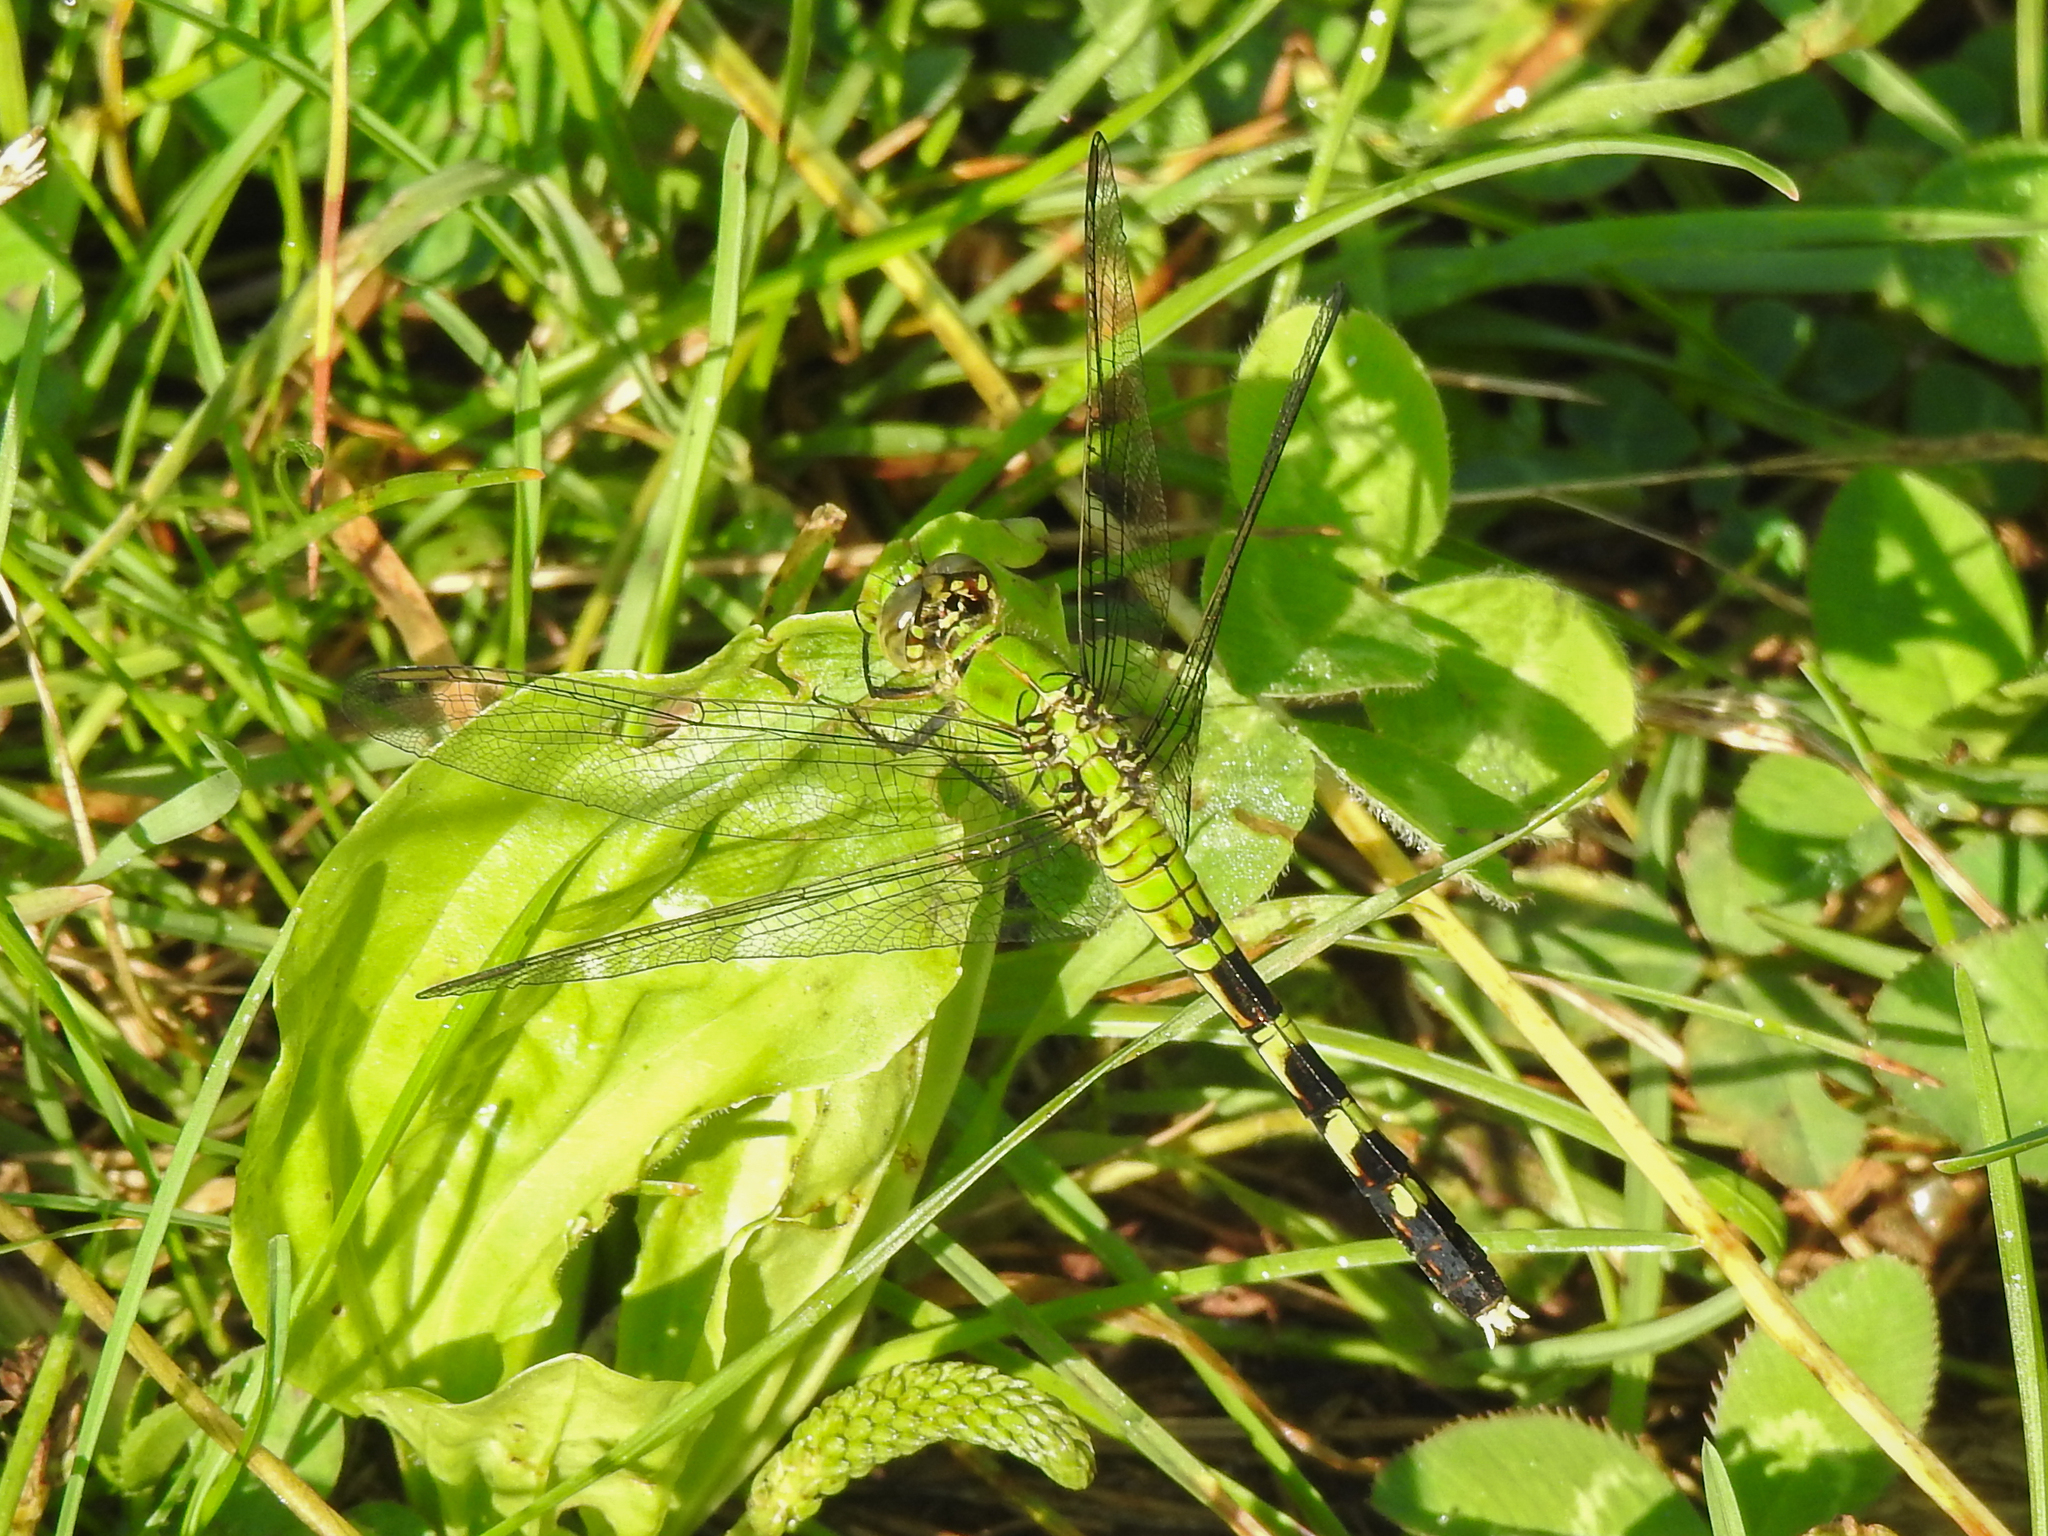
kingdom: Animalia
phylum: Arthropoda
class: Insecta
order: Odonata
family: Libellulidae
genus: Erythemis
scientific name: Erythemis simplicicollis
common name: Eastern pondhawk
